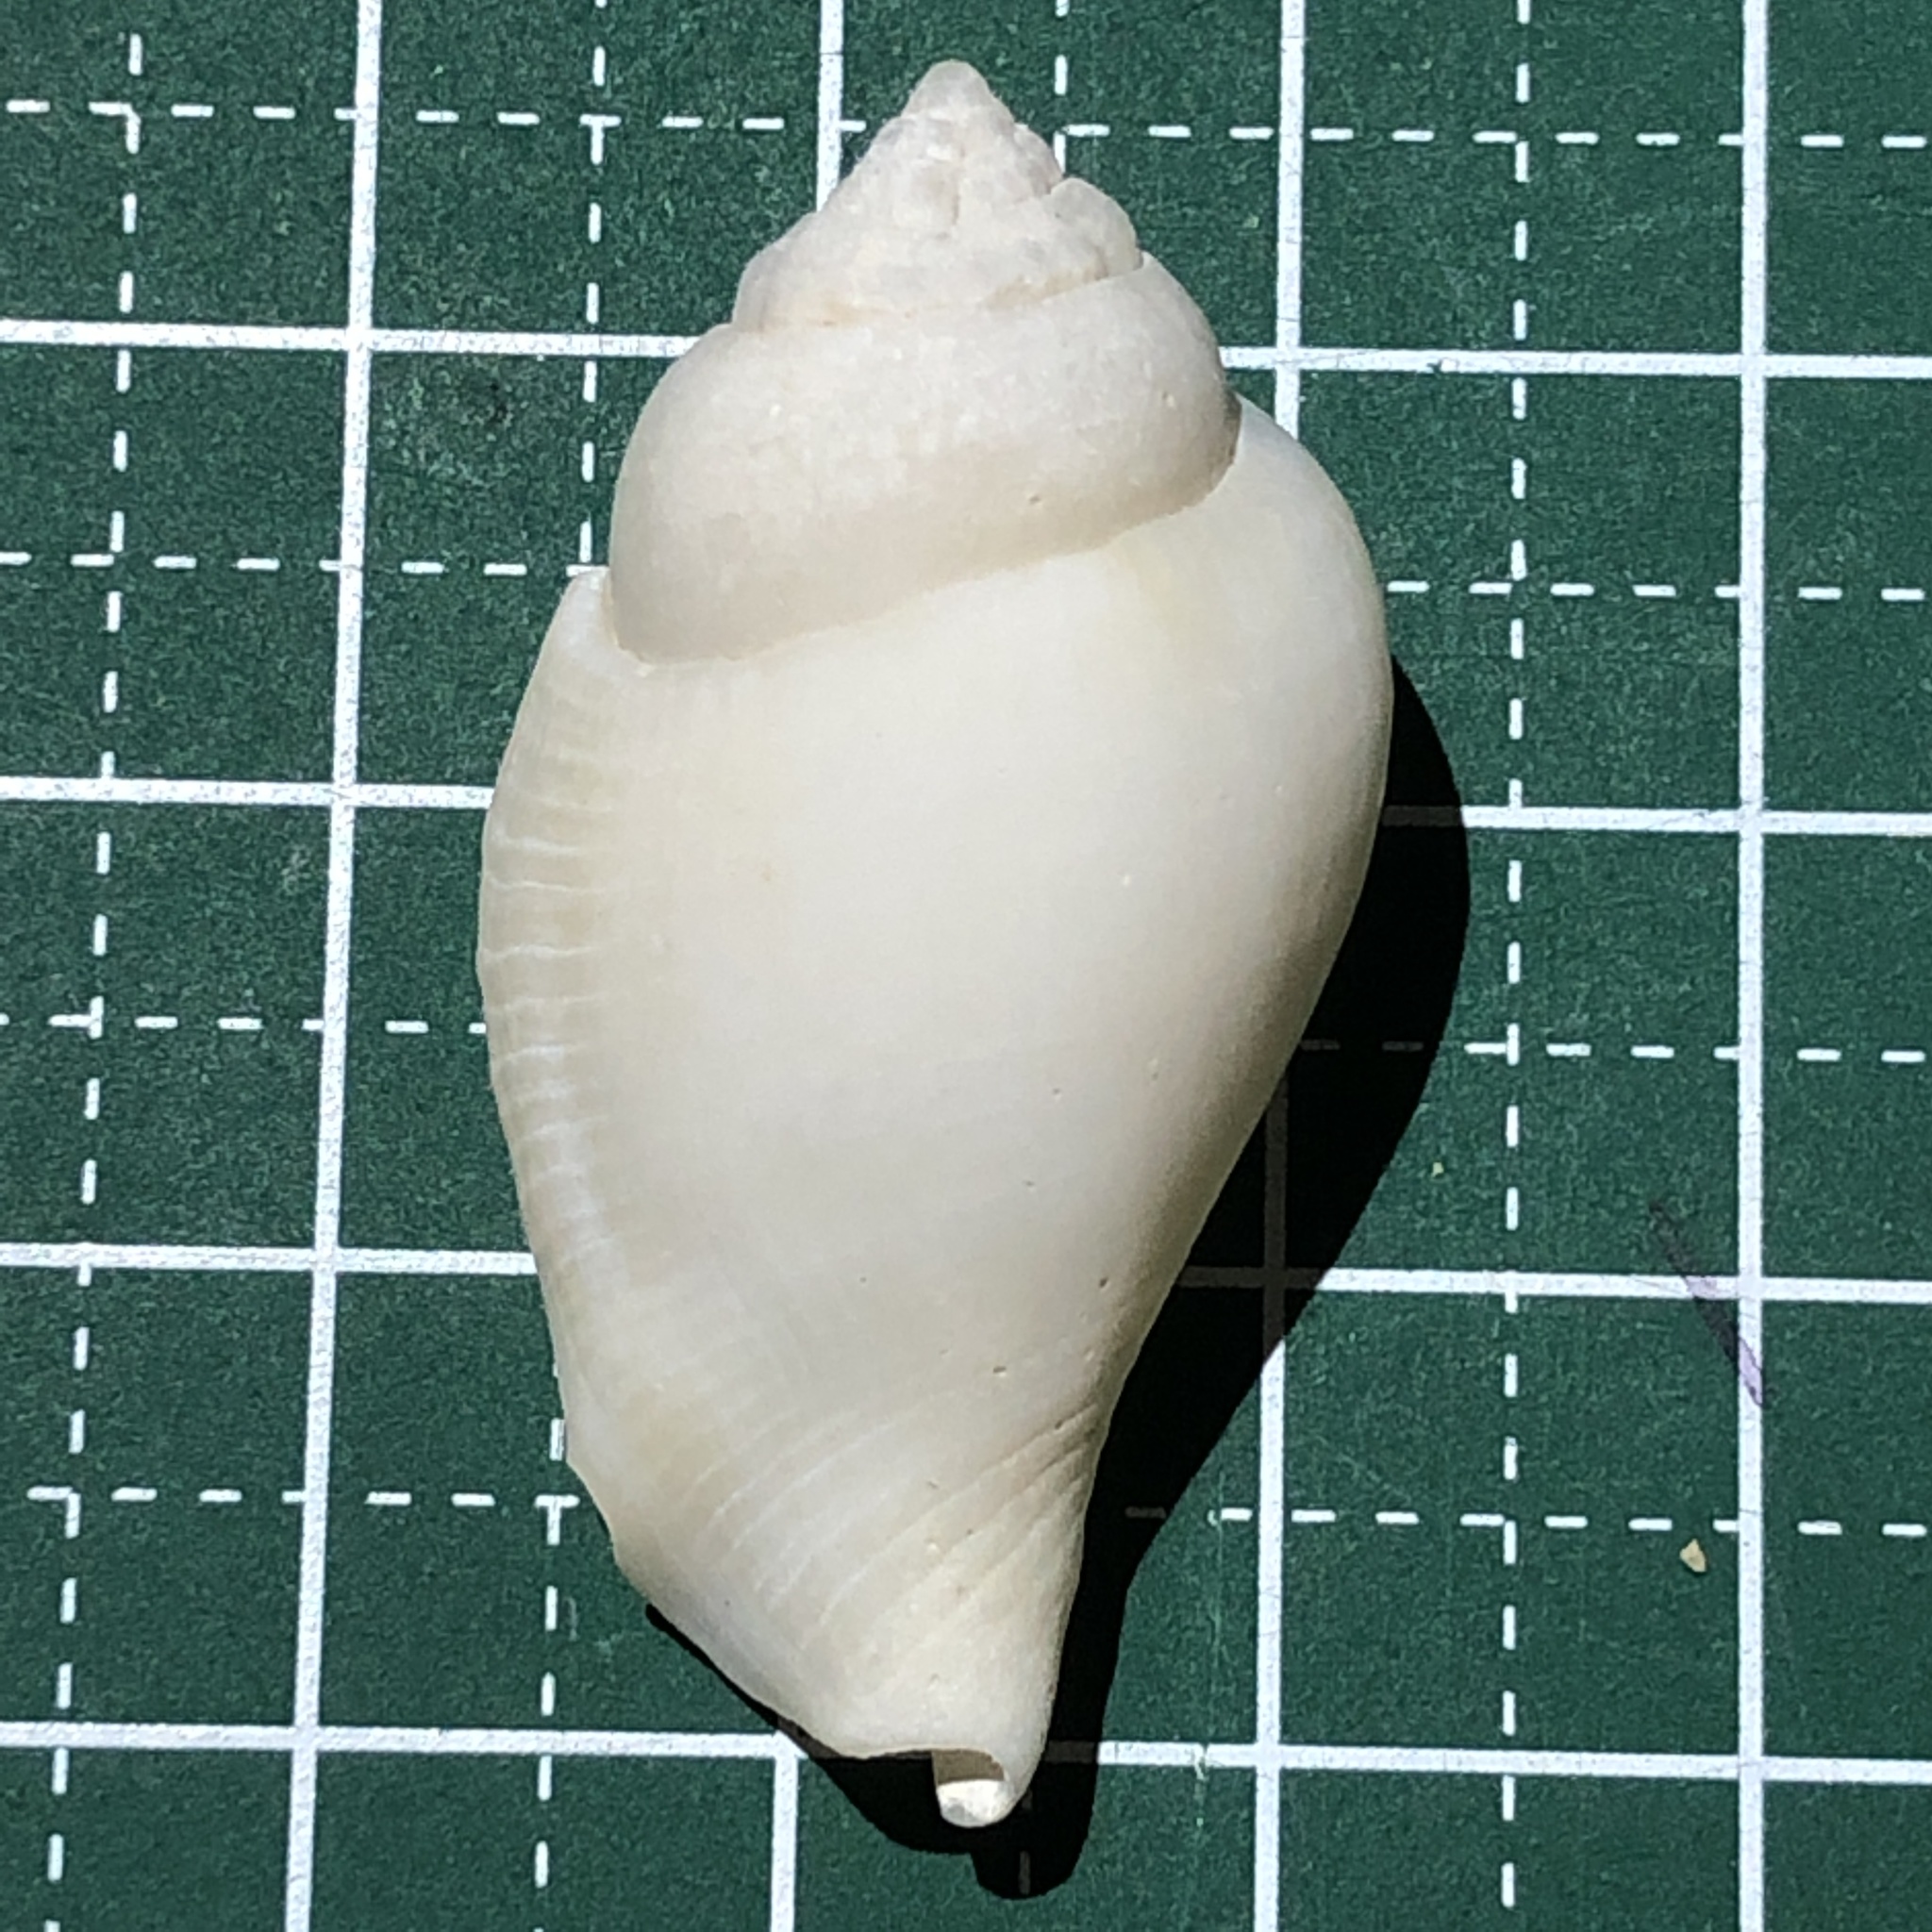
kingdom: Animalia
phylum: Mollusca
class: Gastropoda
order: Littorinimorpha
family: Strombidae
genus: Gibberulus
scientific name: Gibberulus gibberulus
